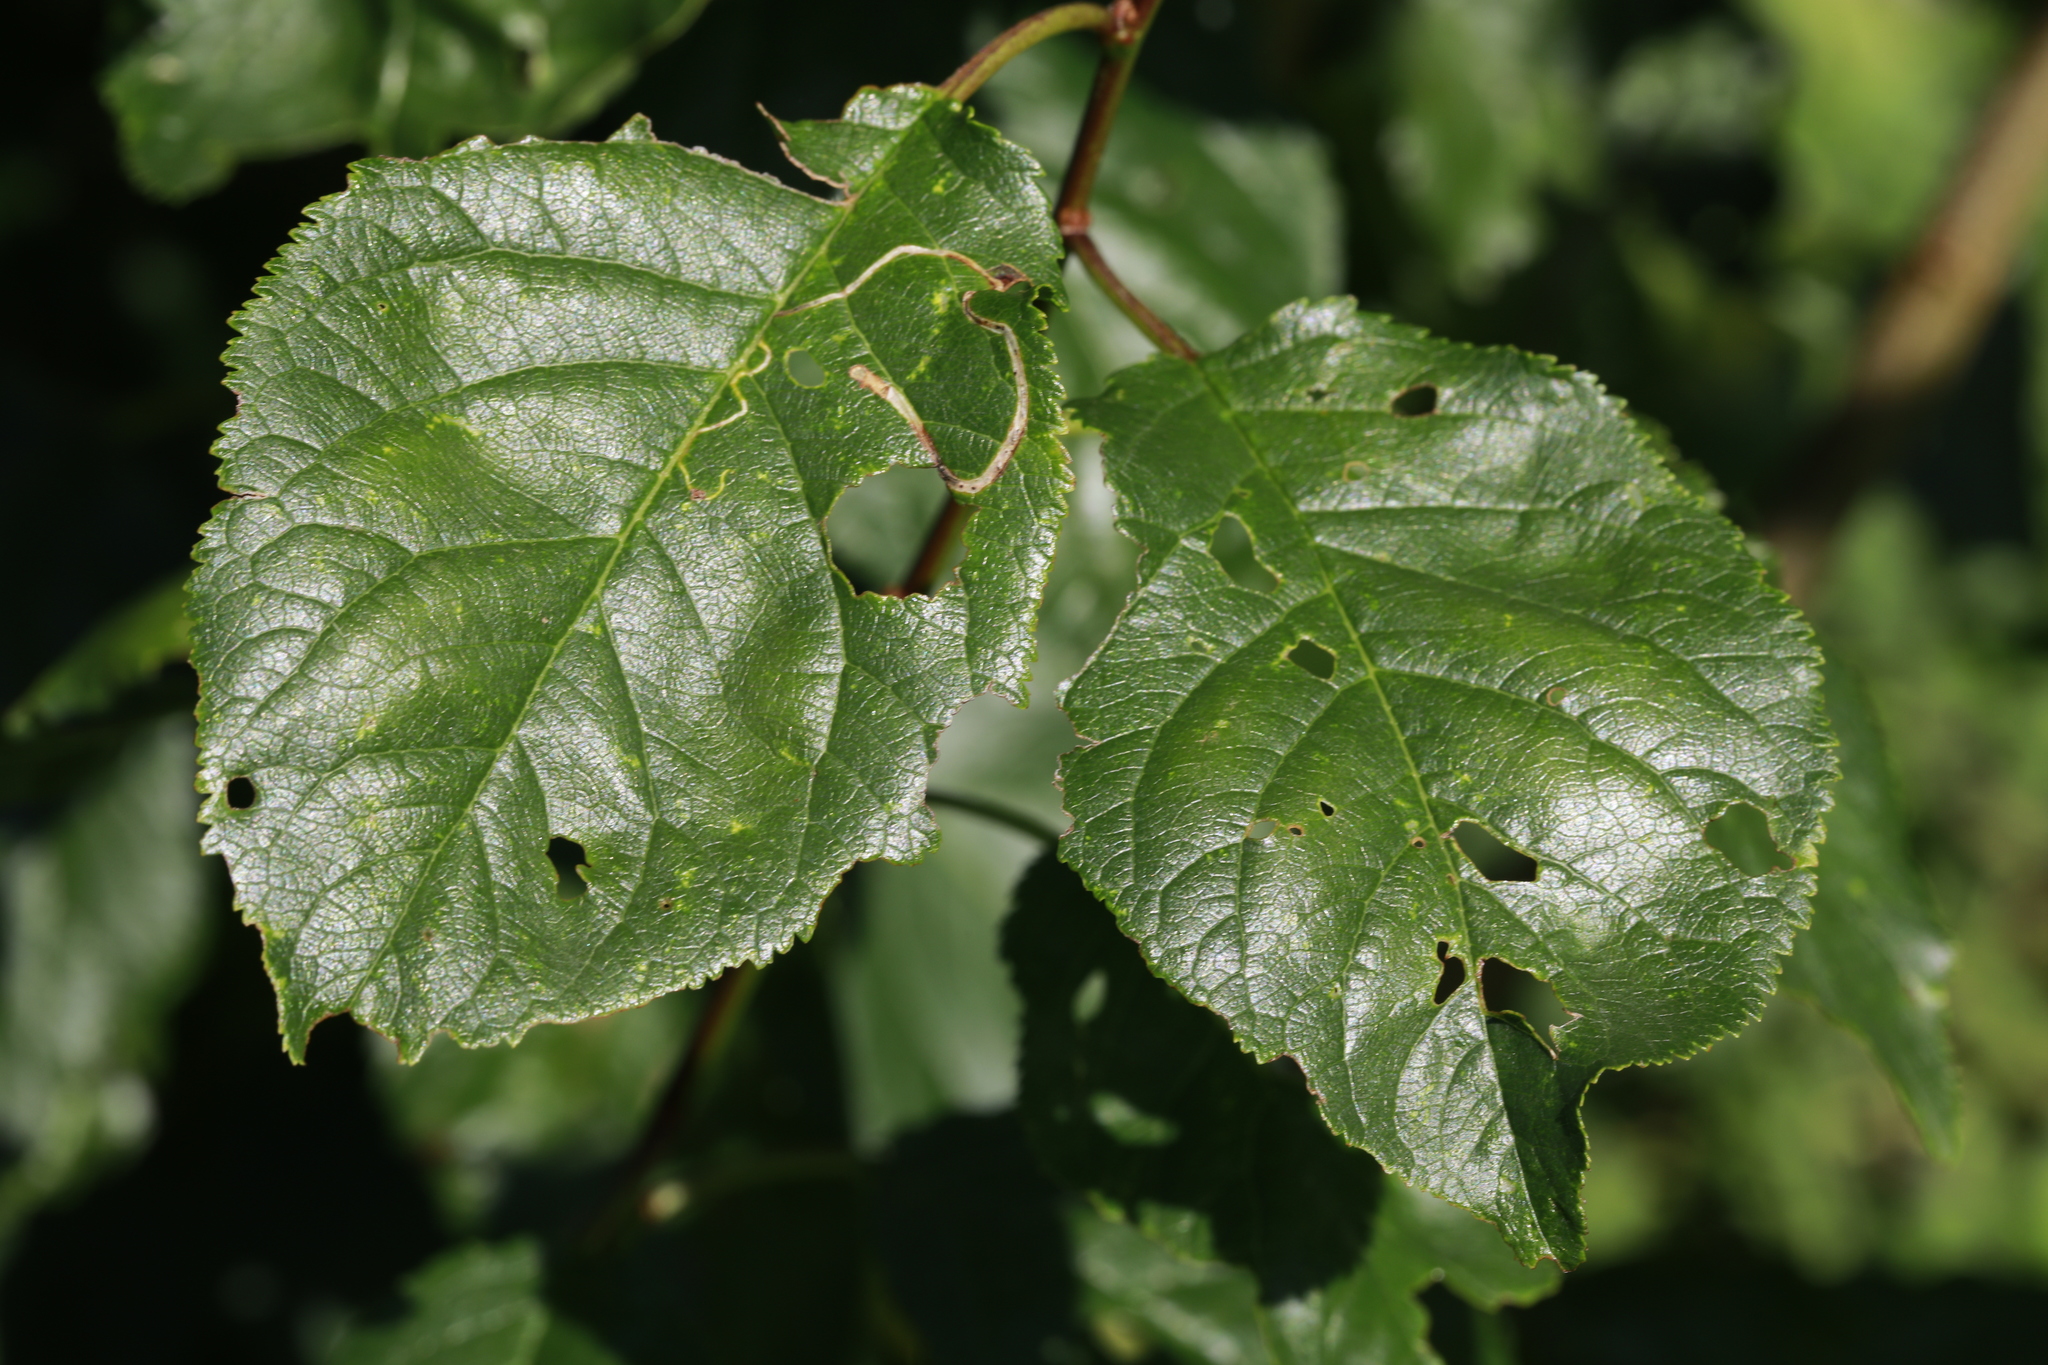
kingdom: Animalia
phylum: Arthropoda
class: Insecta
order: Lepidoptera
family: Lyonetiidae
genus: Lyonetia
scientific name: Lyonetia clerkella
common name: Apple leaf miner
